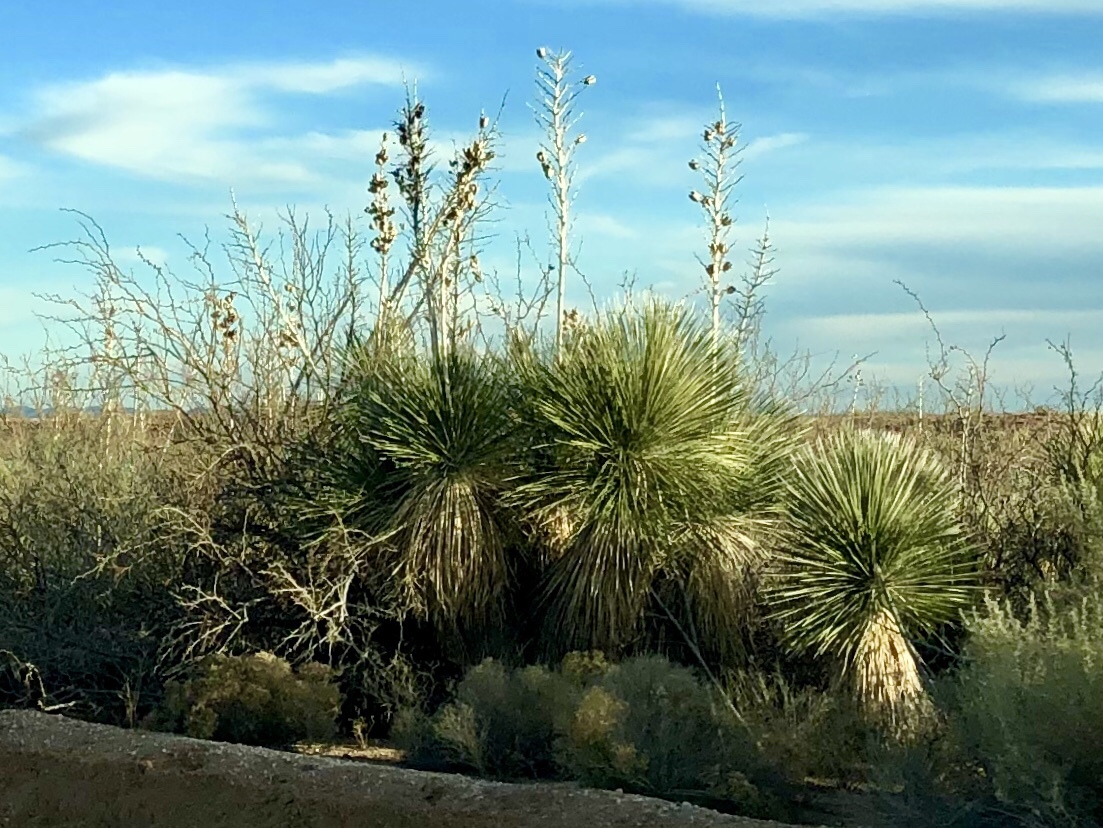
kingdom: Plantae
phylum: Tracheophyta
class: Liliopsida
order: Asparagales
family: Asparagaceae
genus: Yucca
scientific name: Yucca elata
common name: Palmella
